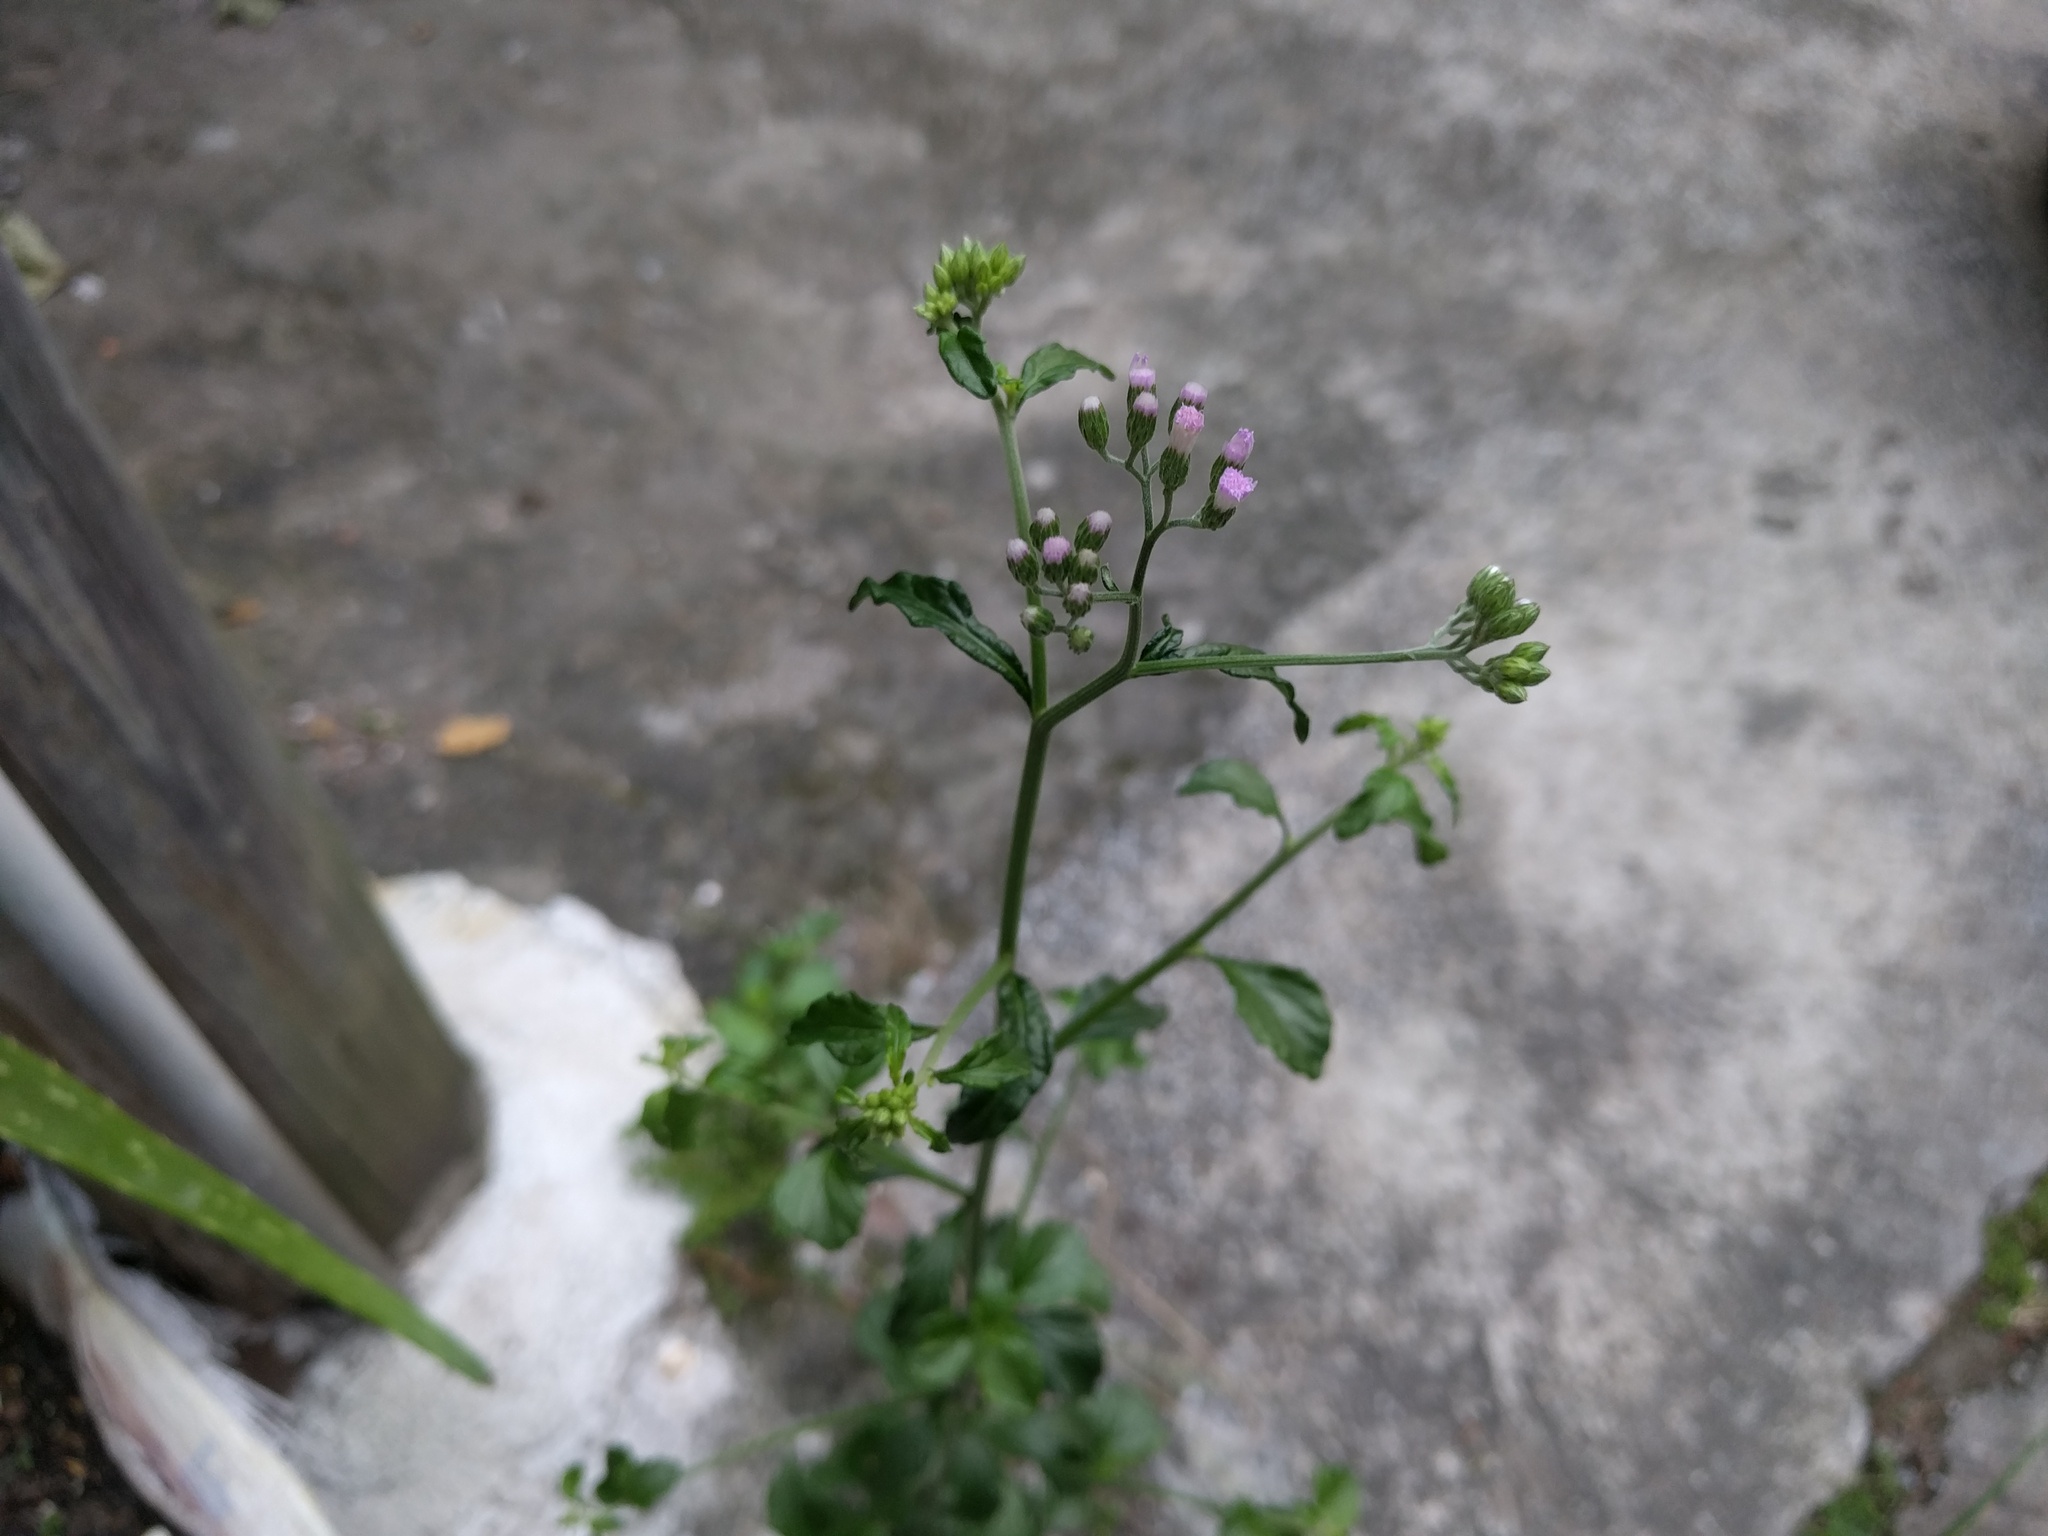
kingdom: Plantae
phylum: Tracheophyta
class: Magnoliopsida
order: Asterales
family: Asteraceae
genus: Cyanthillium
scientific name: Cyanthillium cinereum
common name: Little ironweed
